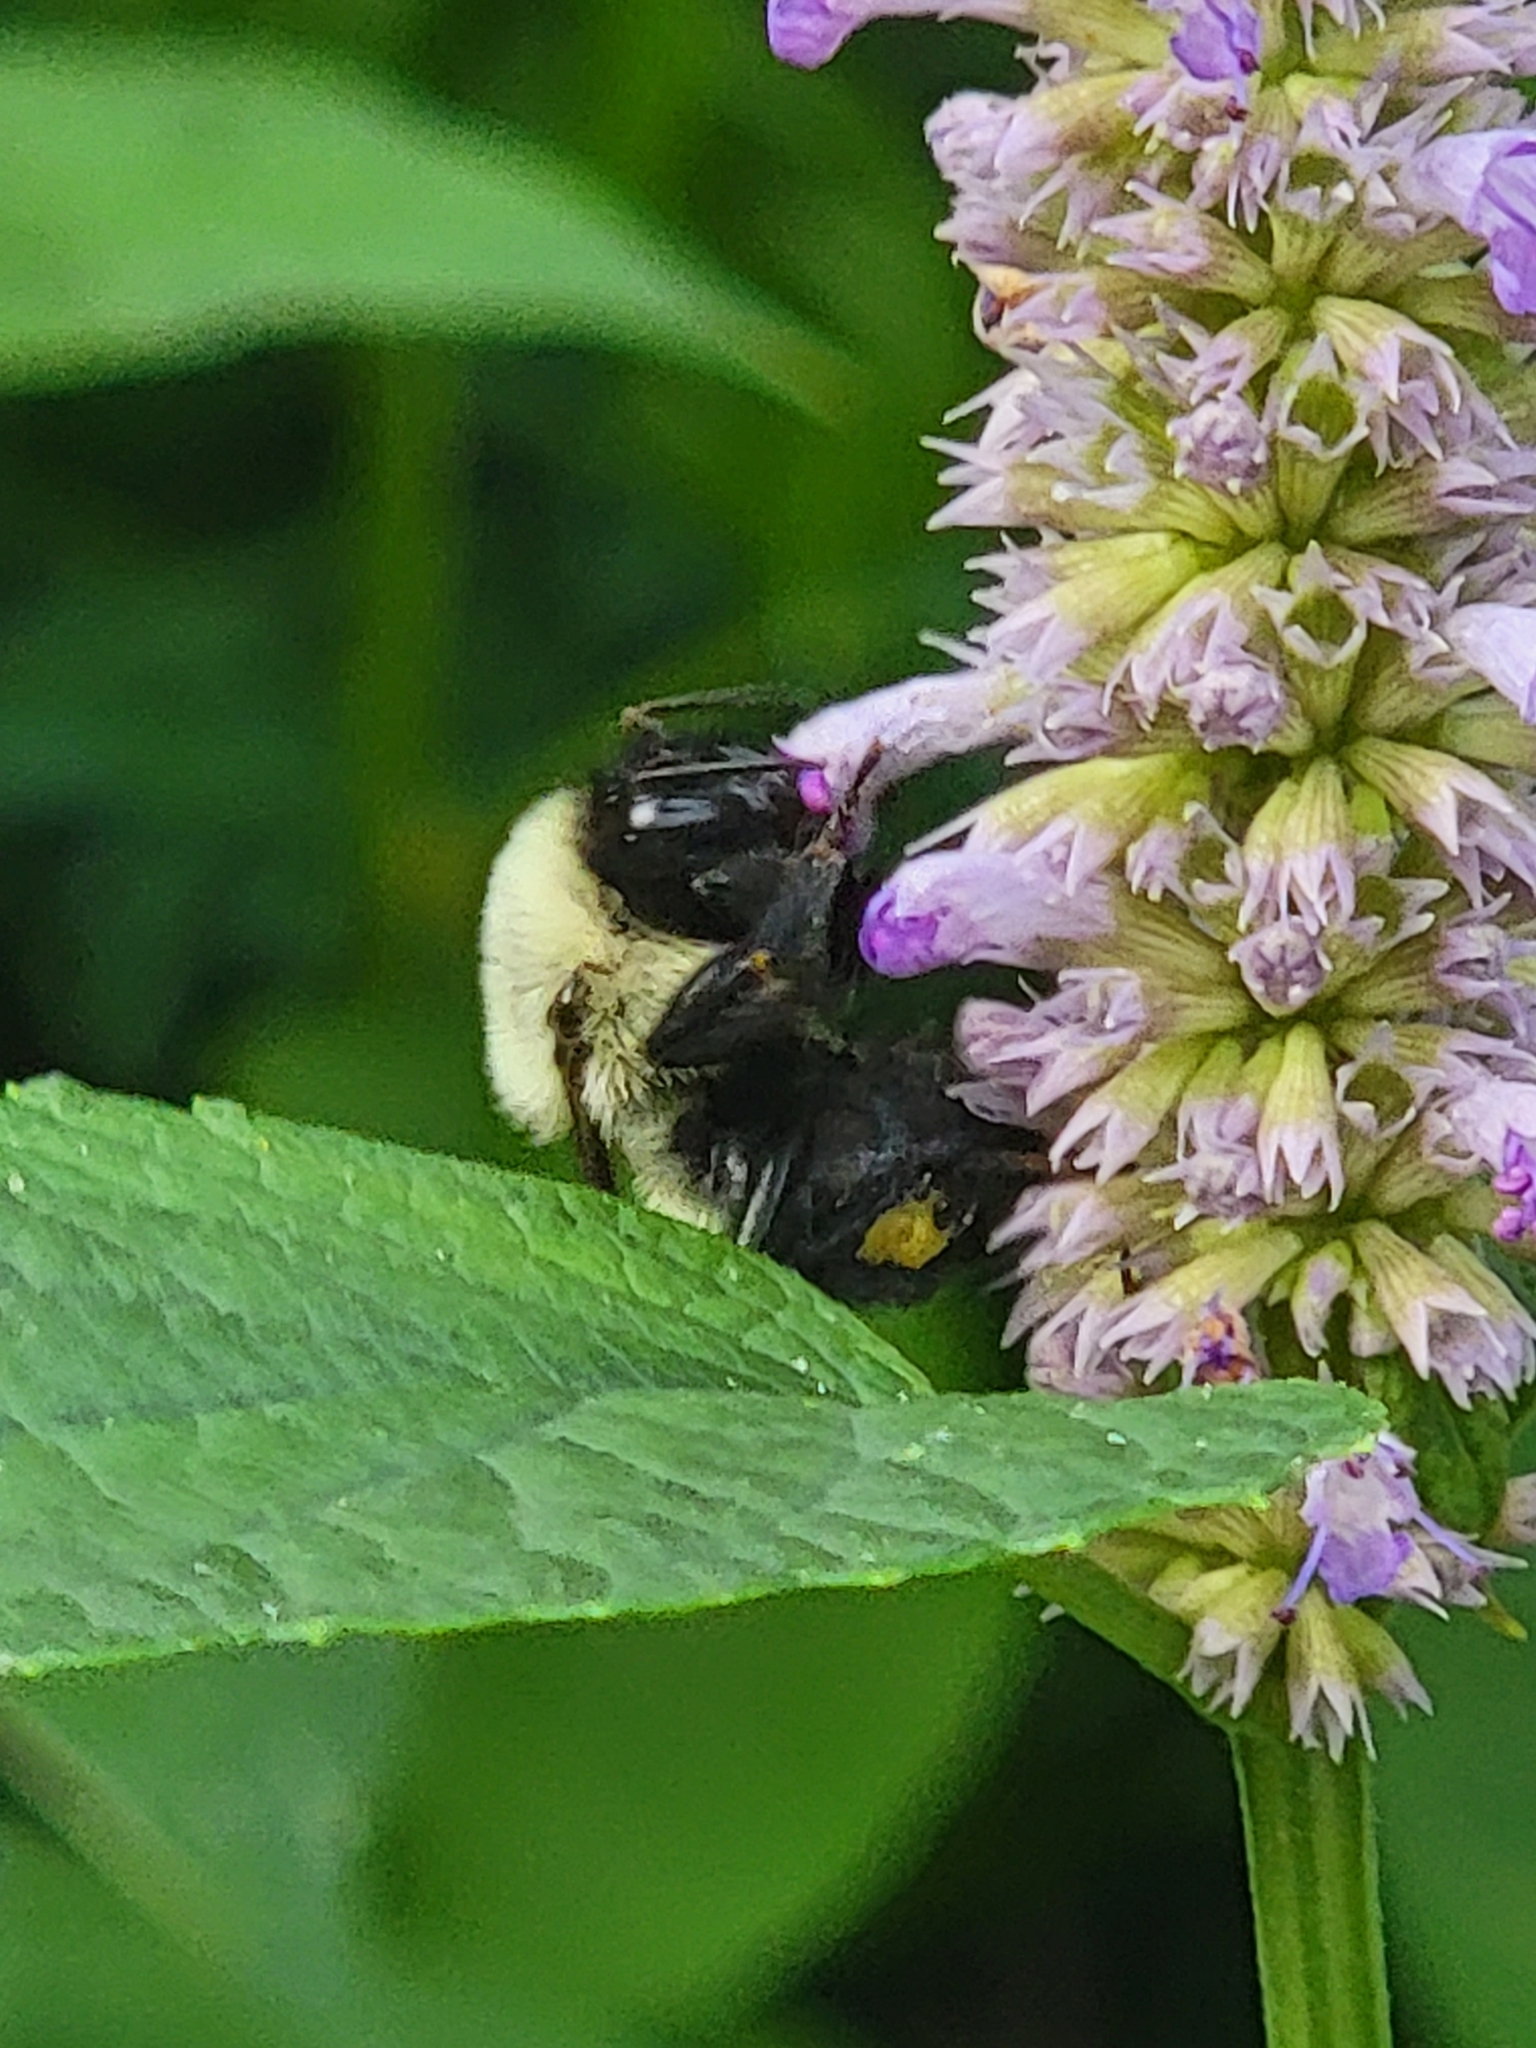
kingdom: Animalia
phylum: Arthropoda
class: Insecta
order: Hymenoptera
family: Apidae
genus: Bombus
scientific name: Bombus impatiens
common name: Common eastern bumble bee
